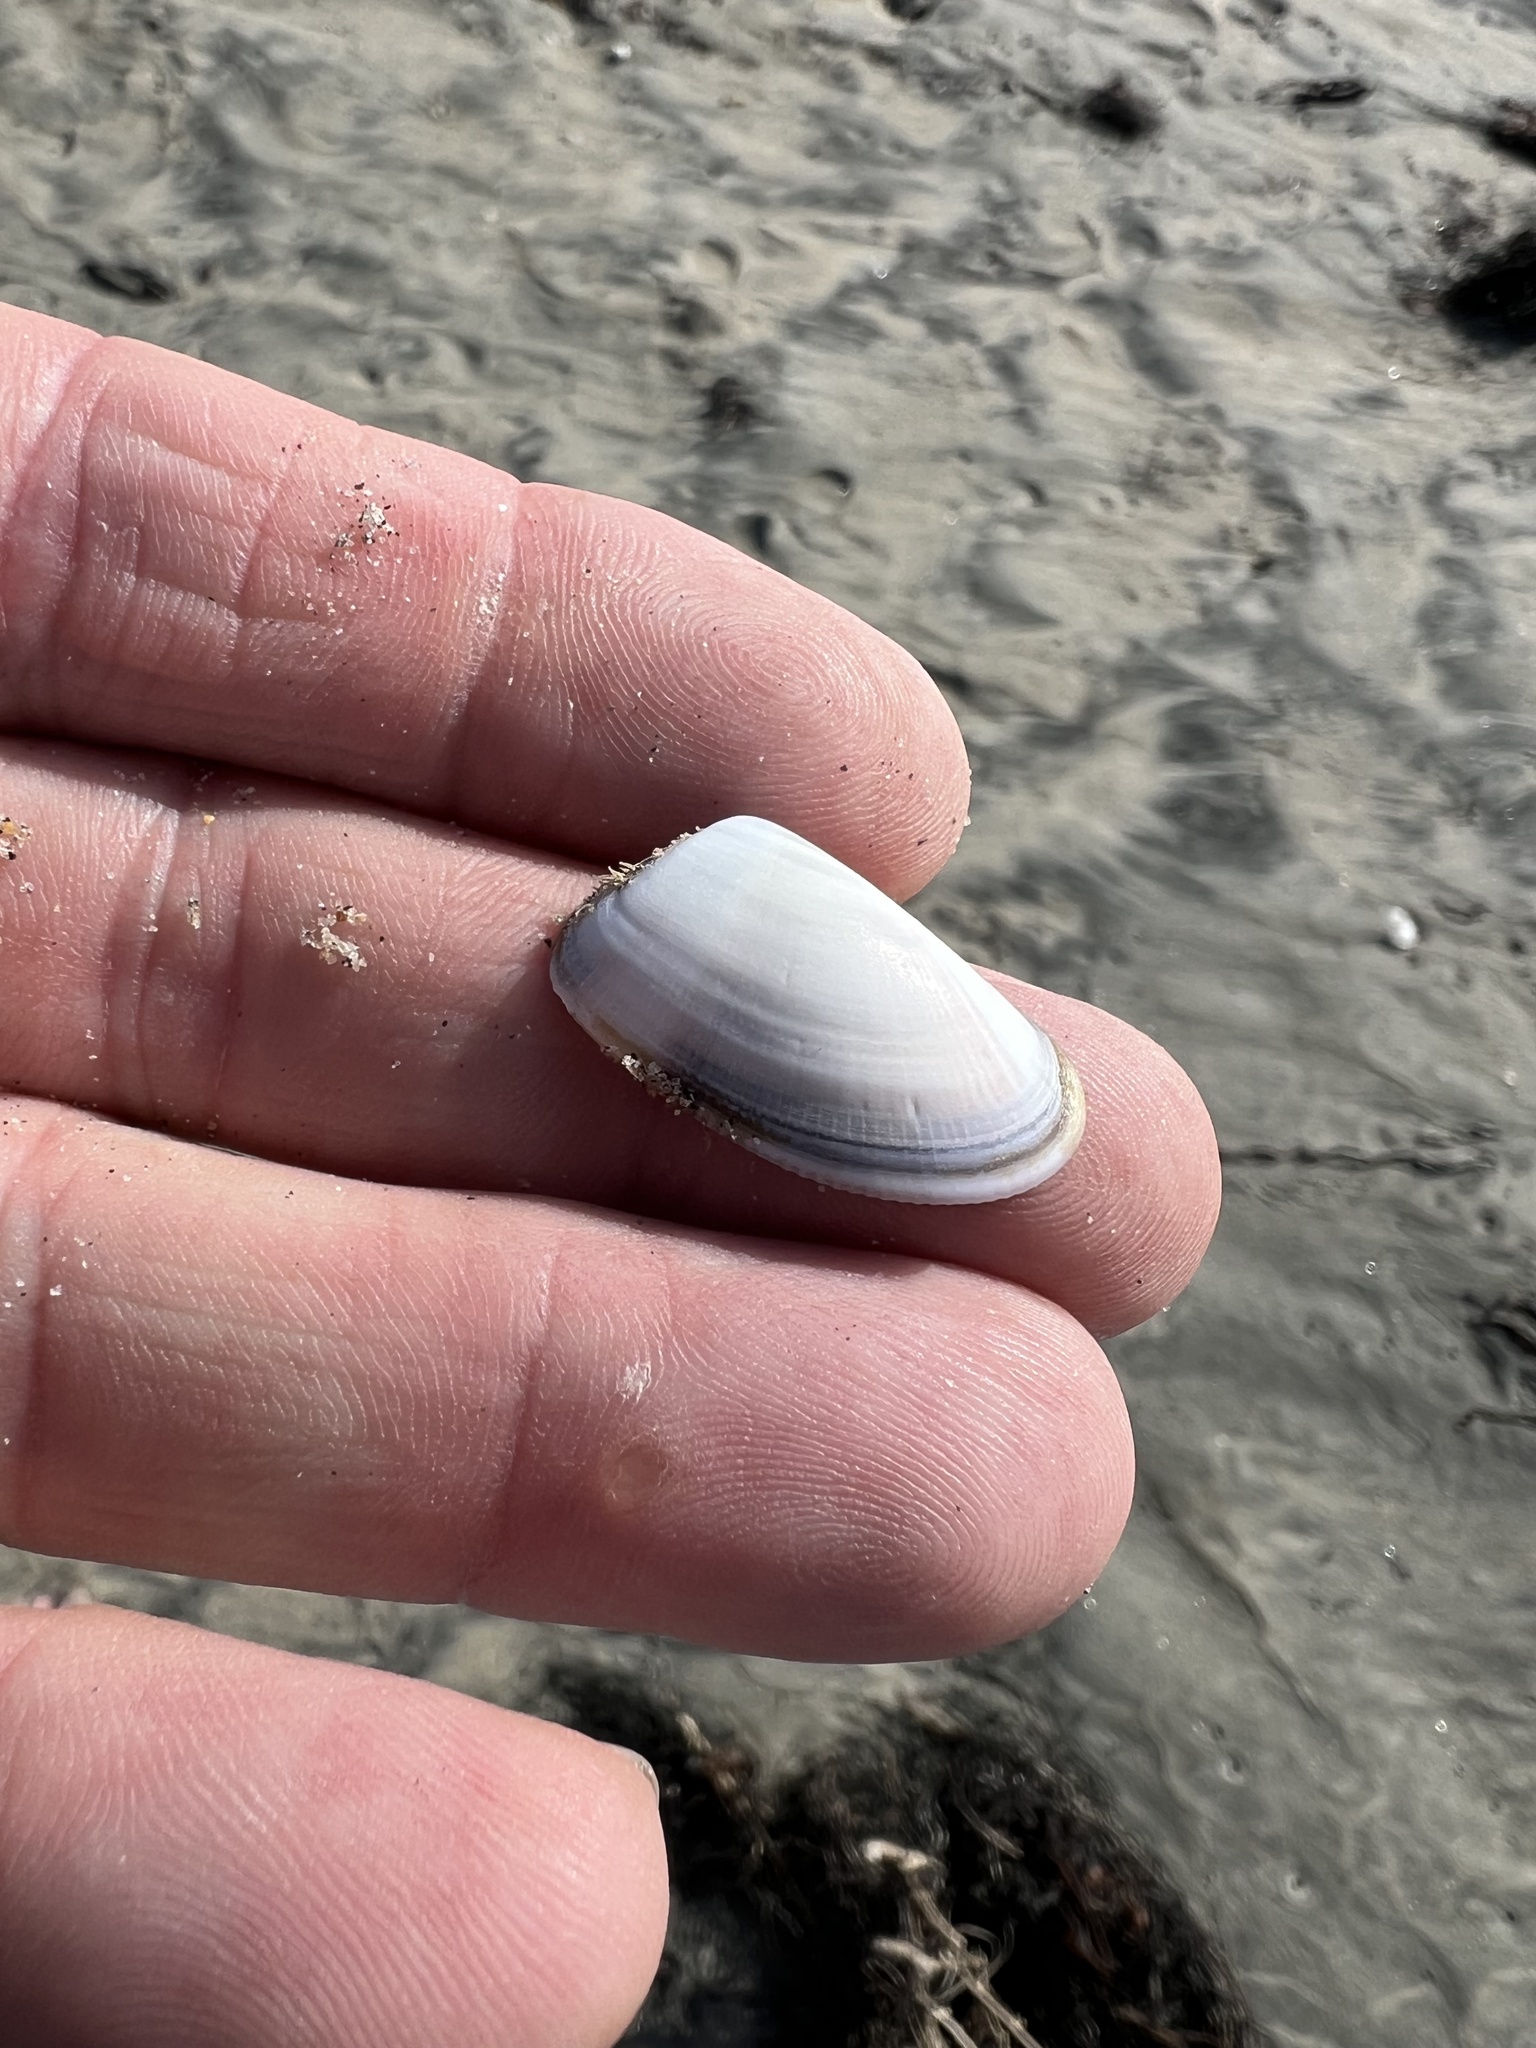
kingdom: Animalia
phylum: Mollusca
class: Bivalvia
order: Cardiida
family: Donacidae
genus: Donax
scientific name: Donax gouldii
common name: Gould beanclam
